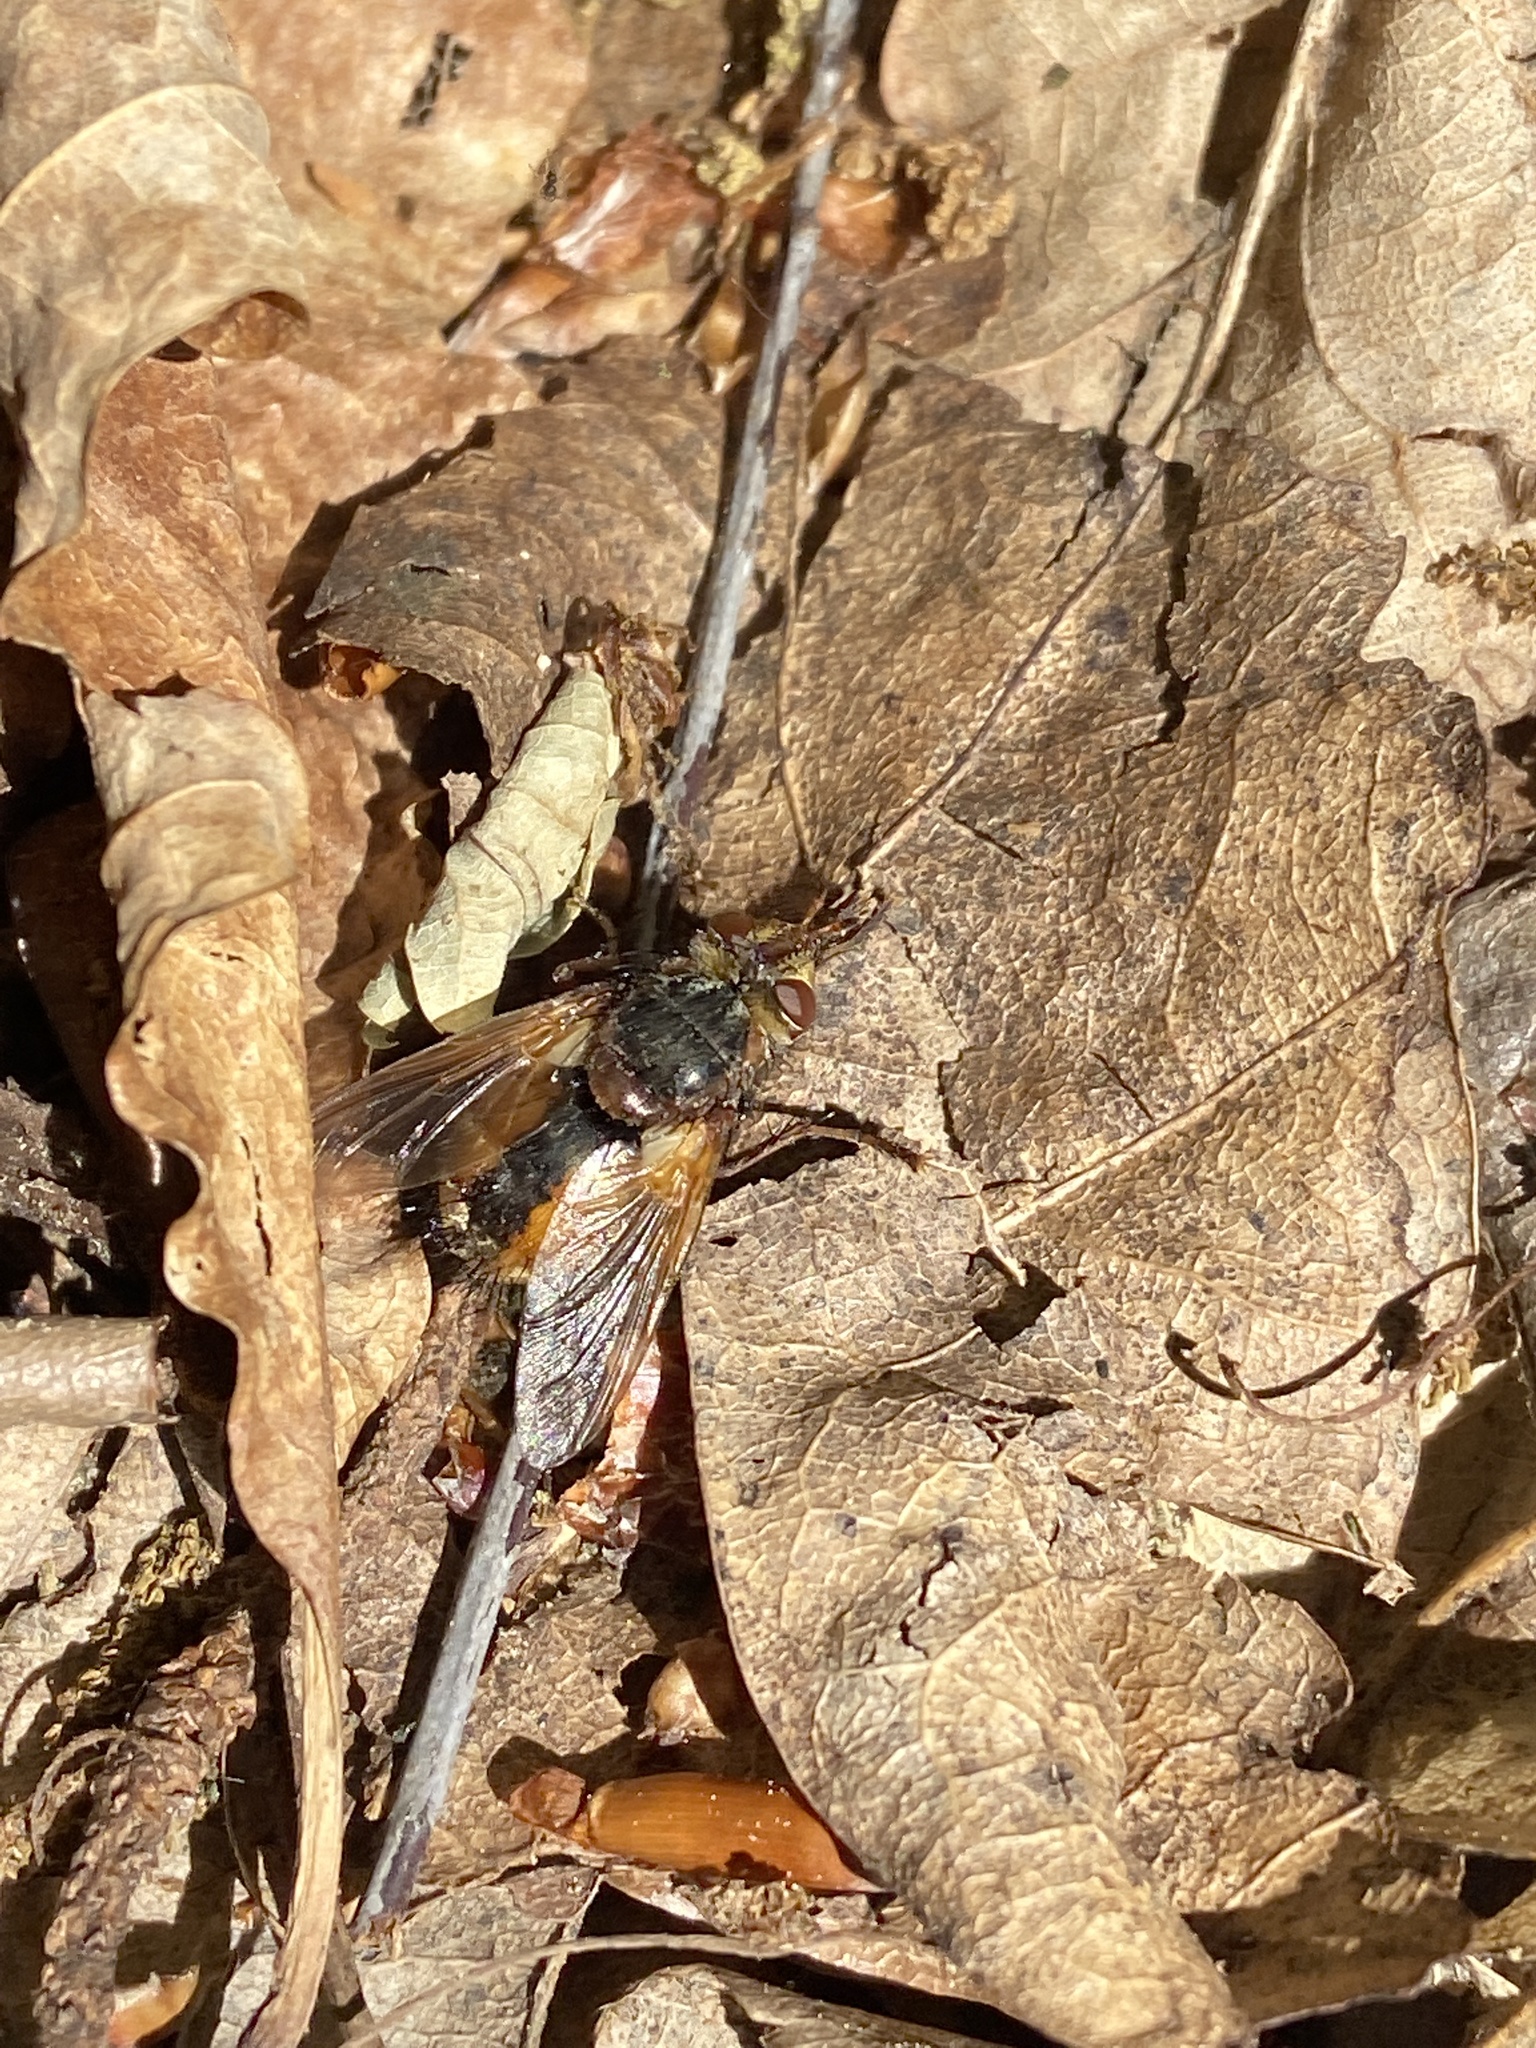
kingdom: Animalia
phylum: Arthropoda
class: Insecta
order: Diptera
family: Tachinidae
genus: Tachina
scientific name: Tachina fera
